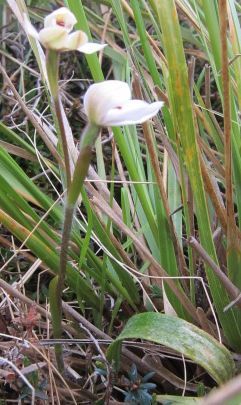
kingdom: Plantae
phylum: Tracheophyta
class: Liliopsida
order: Asparagales
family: Orchidaceae
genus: Caladenia
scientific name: Caladenia lyallii
